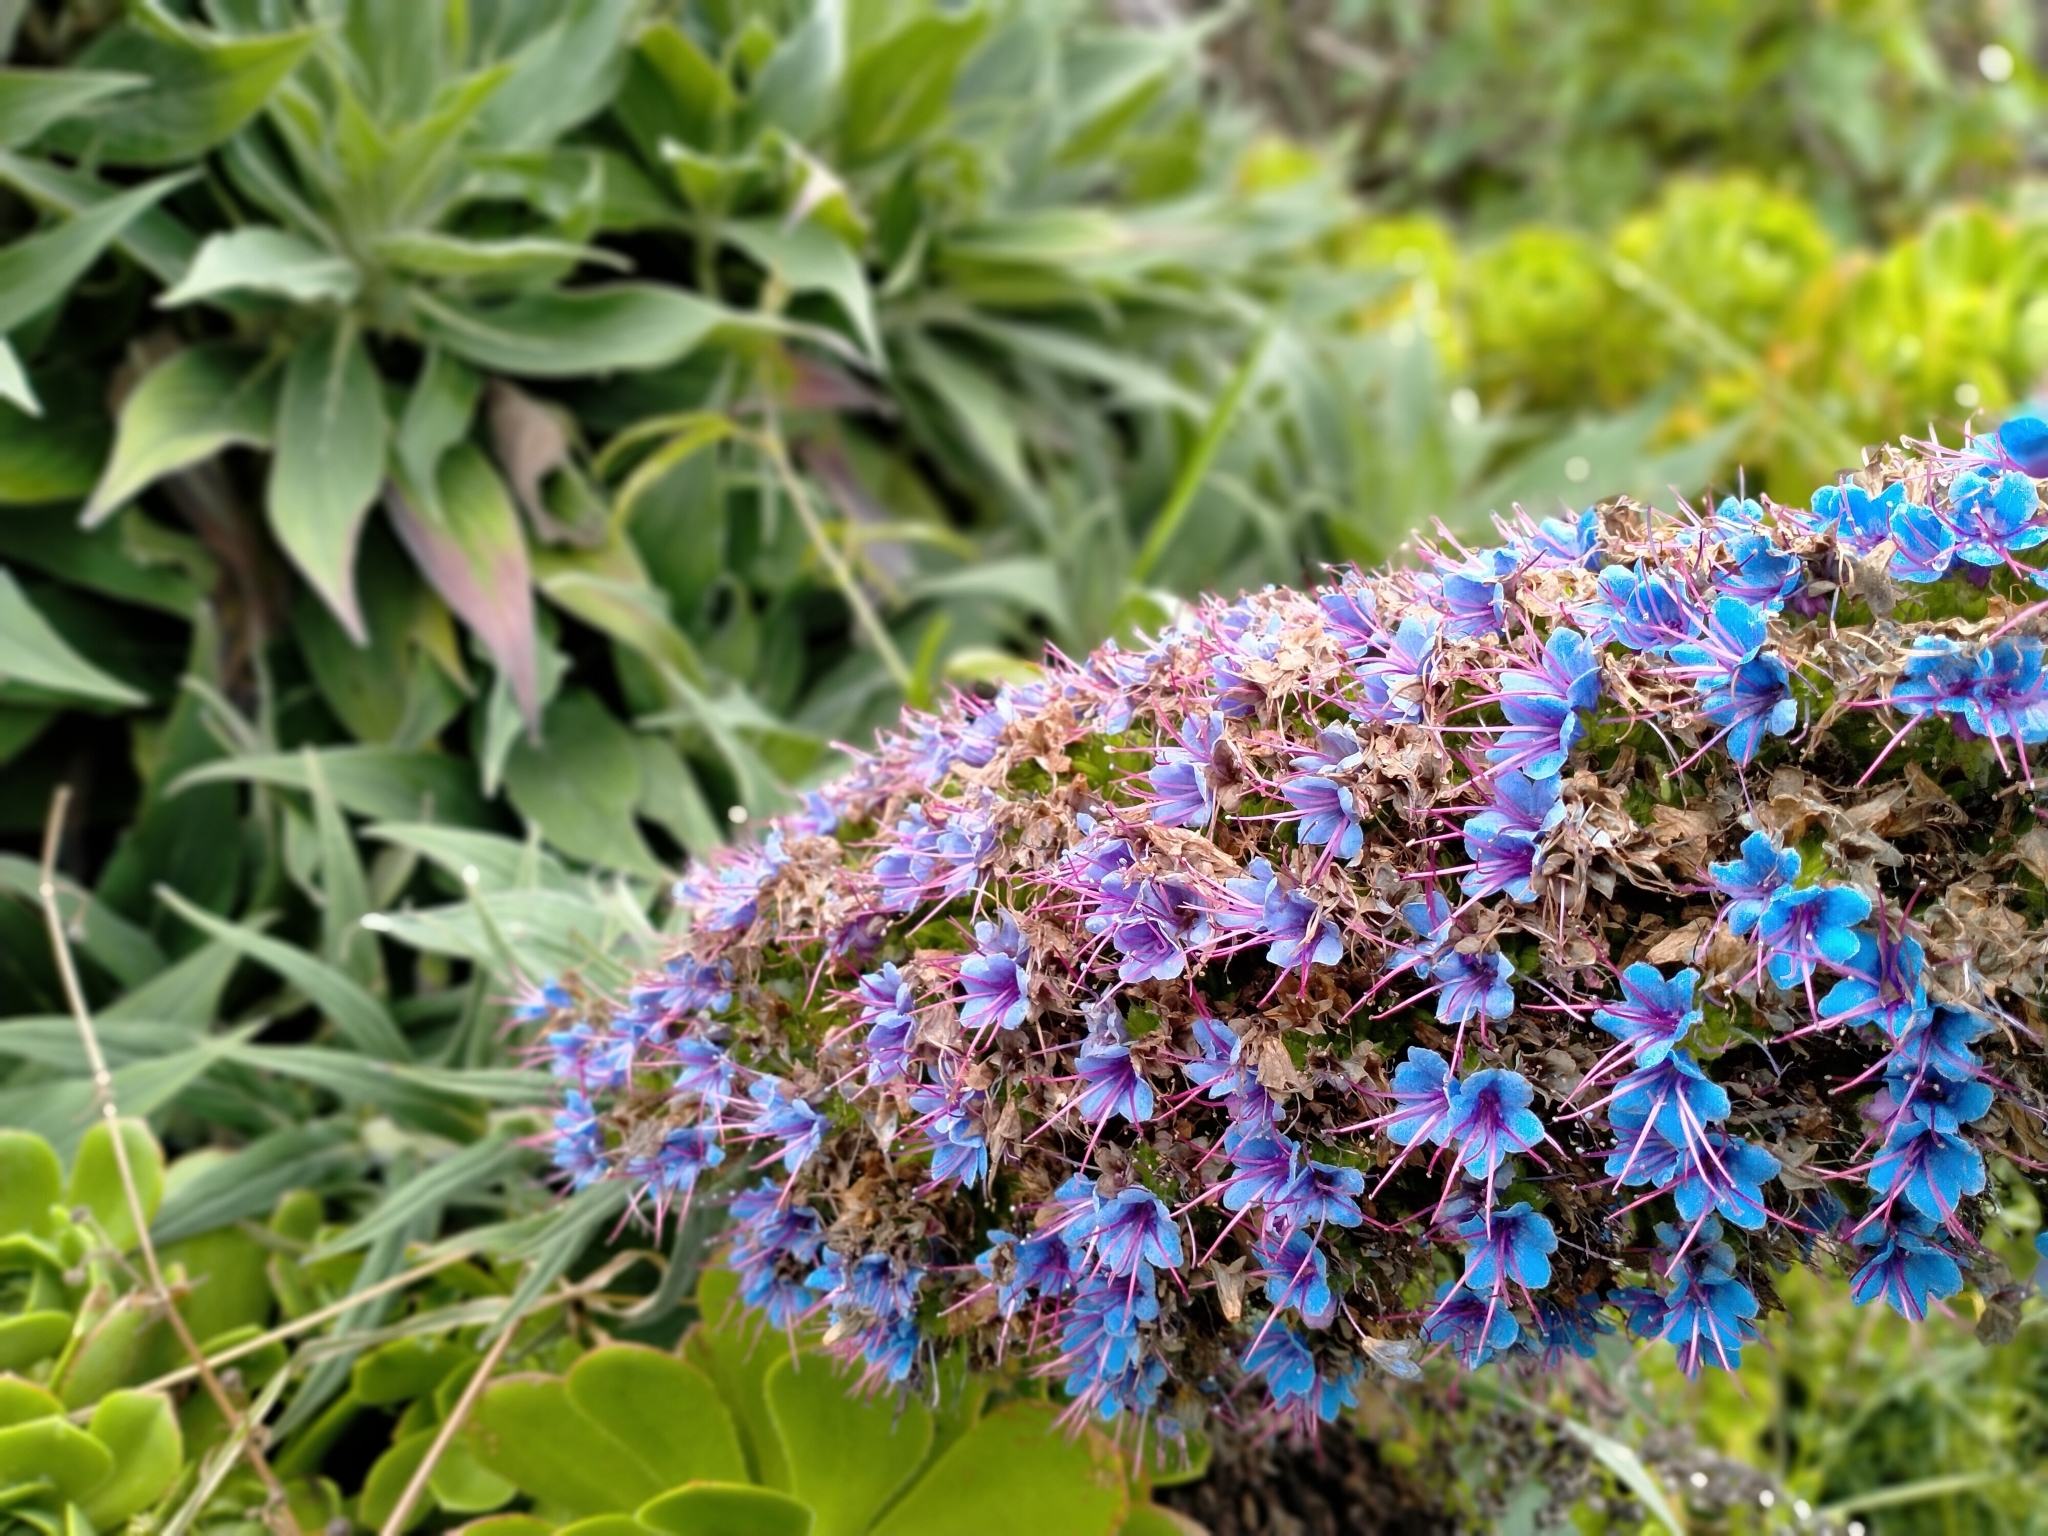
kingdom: Plantae
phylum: Tracheophyta
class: Magnoliopsida
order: Boraginales
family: Boraginaceae
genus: Echium
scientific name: Echium candicans
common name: Pride of madeira
